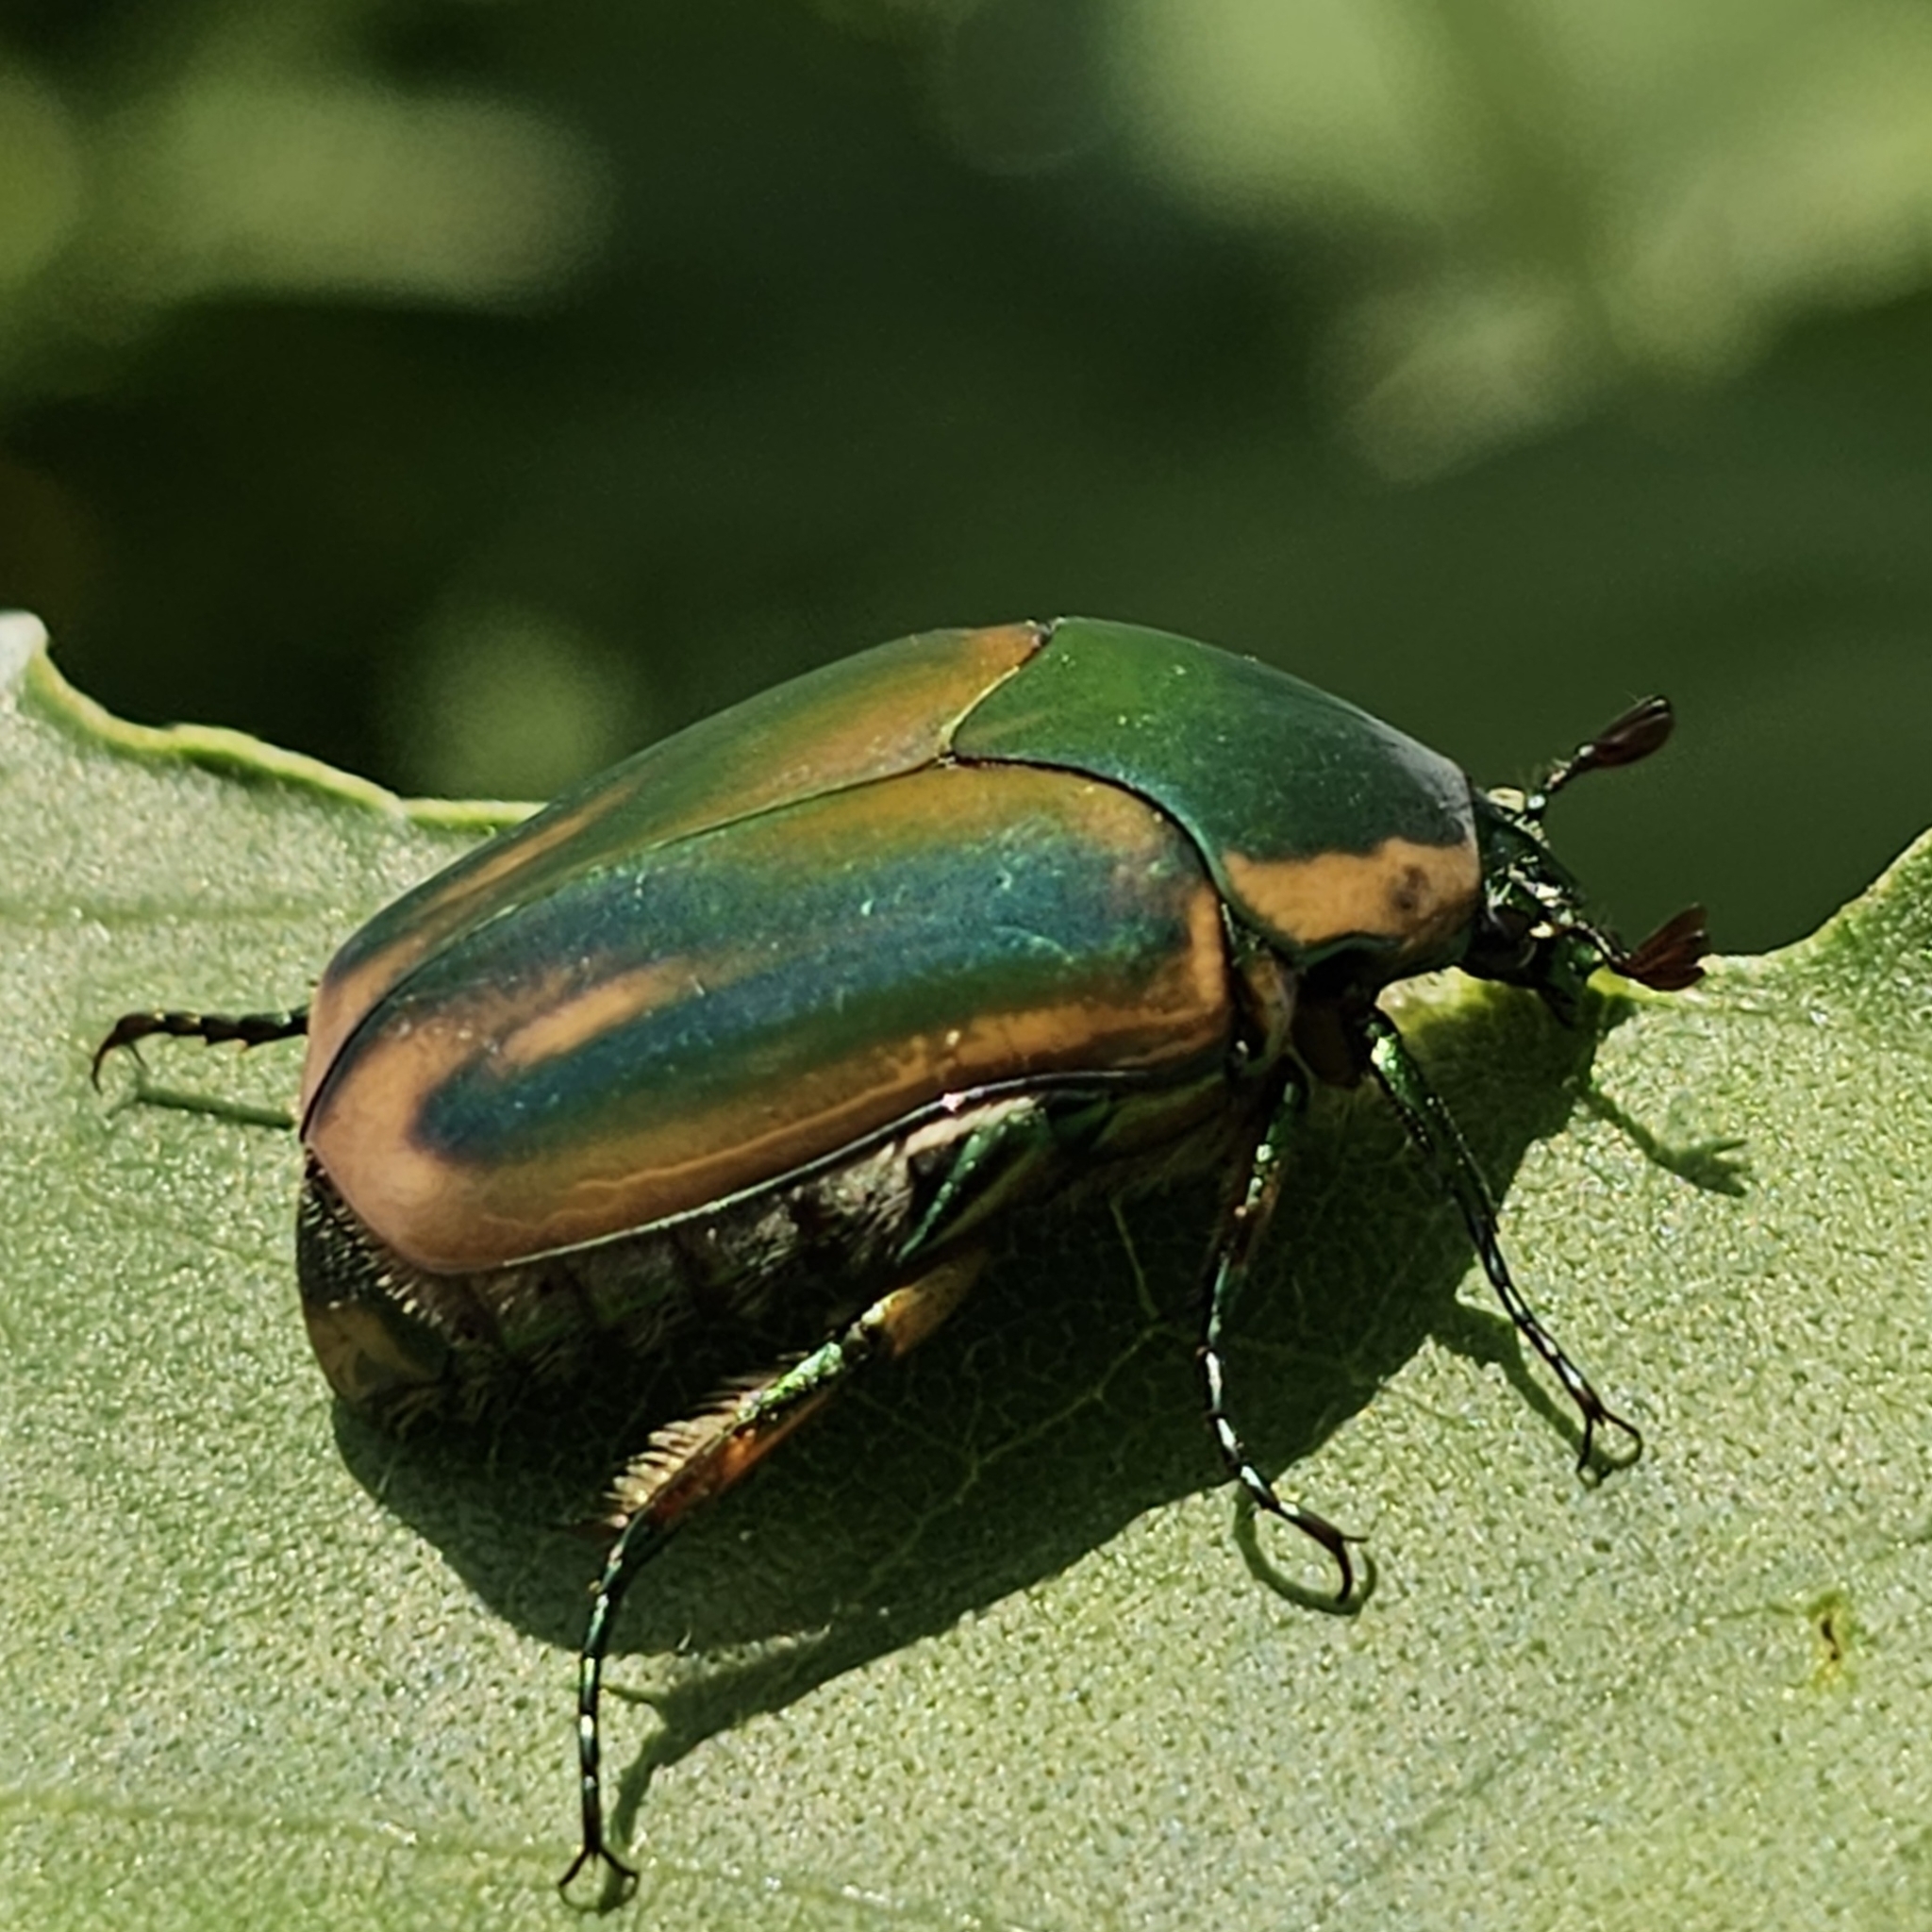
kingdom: Animalia
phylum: Arthropoda
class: Insecta
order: Coleoptera
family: Scarabaeidae
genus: Cotinis
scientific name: Cotinis nitida
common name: Common green june beetle
